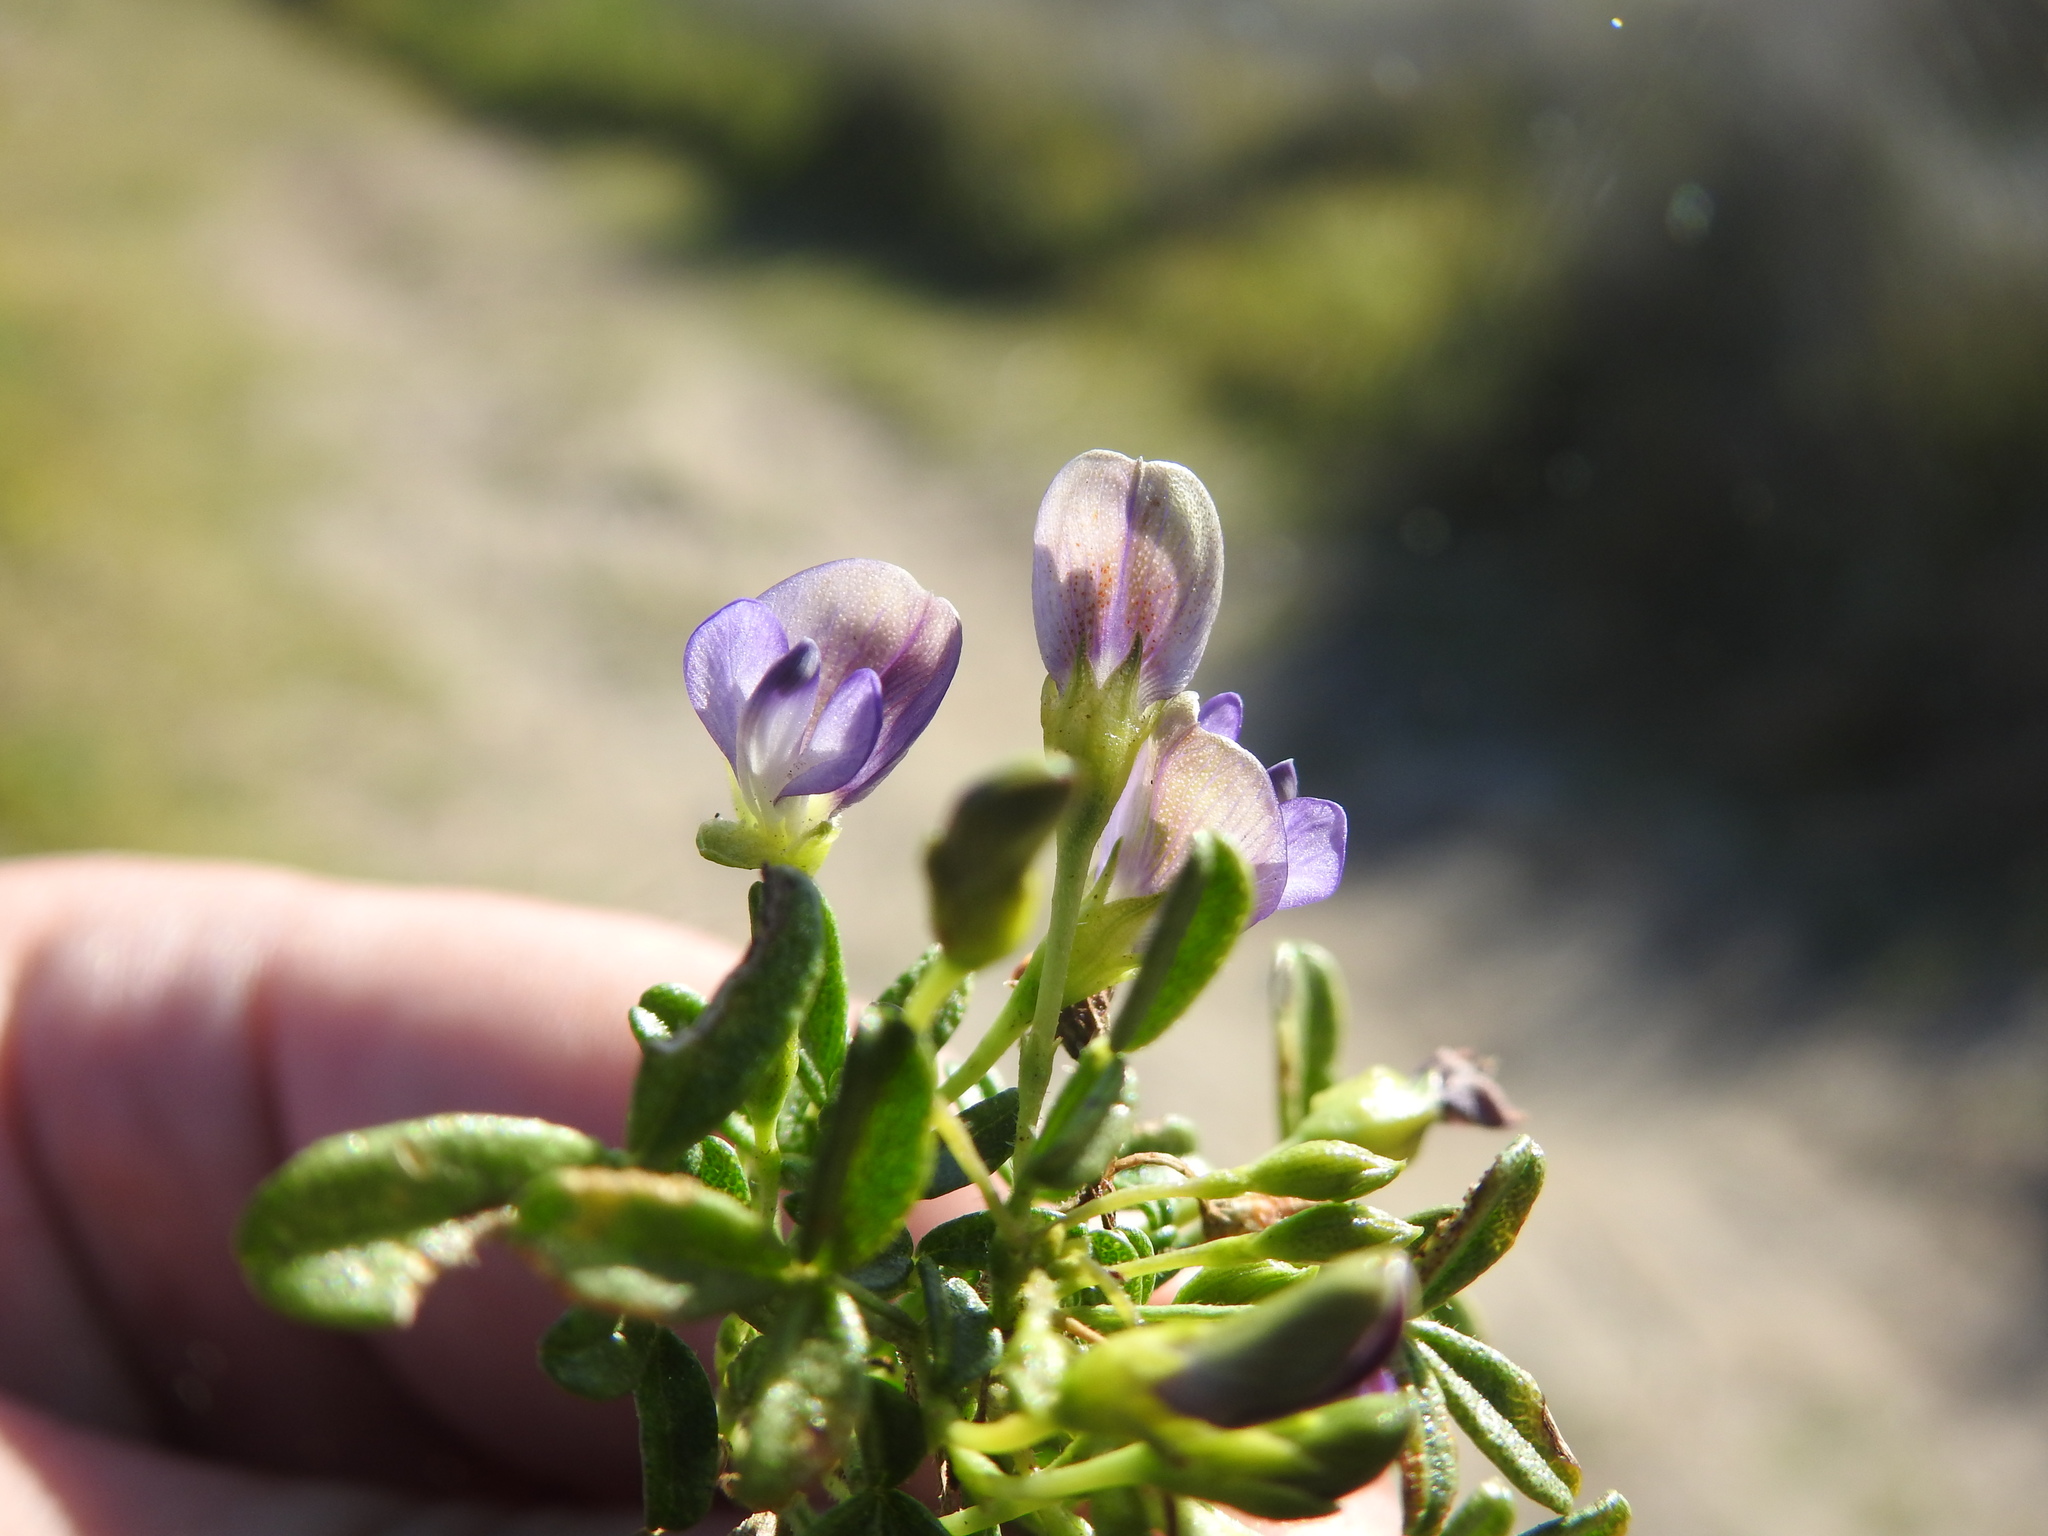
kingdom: Plantae
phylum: Tracheophyta
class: Magnoliopsida
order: Fabales
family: Fabaceae
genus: Psoralea
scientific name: Psoralea repens
